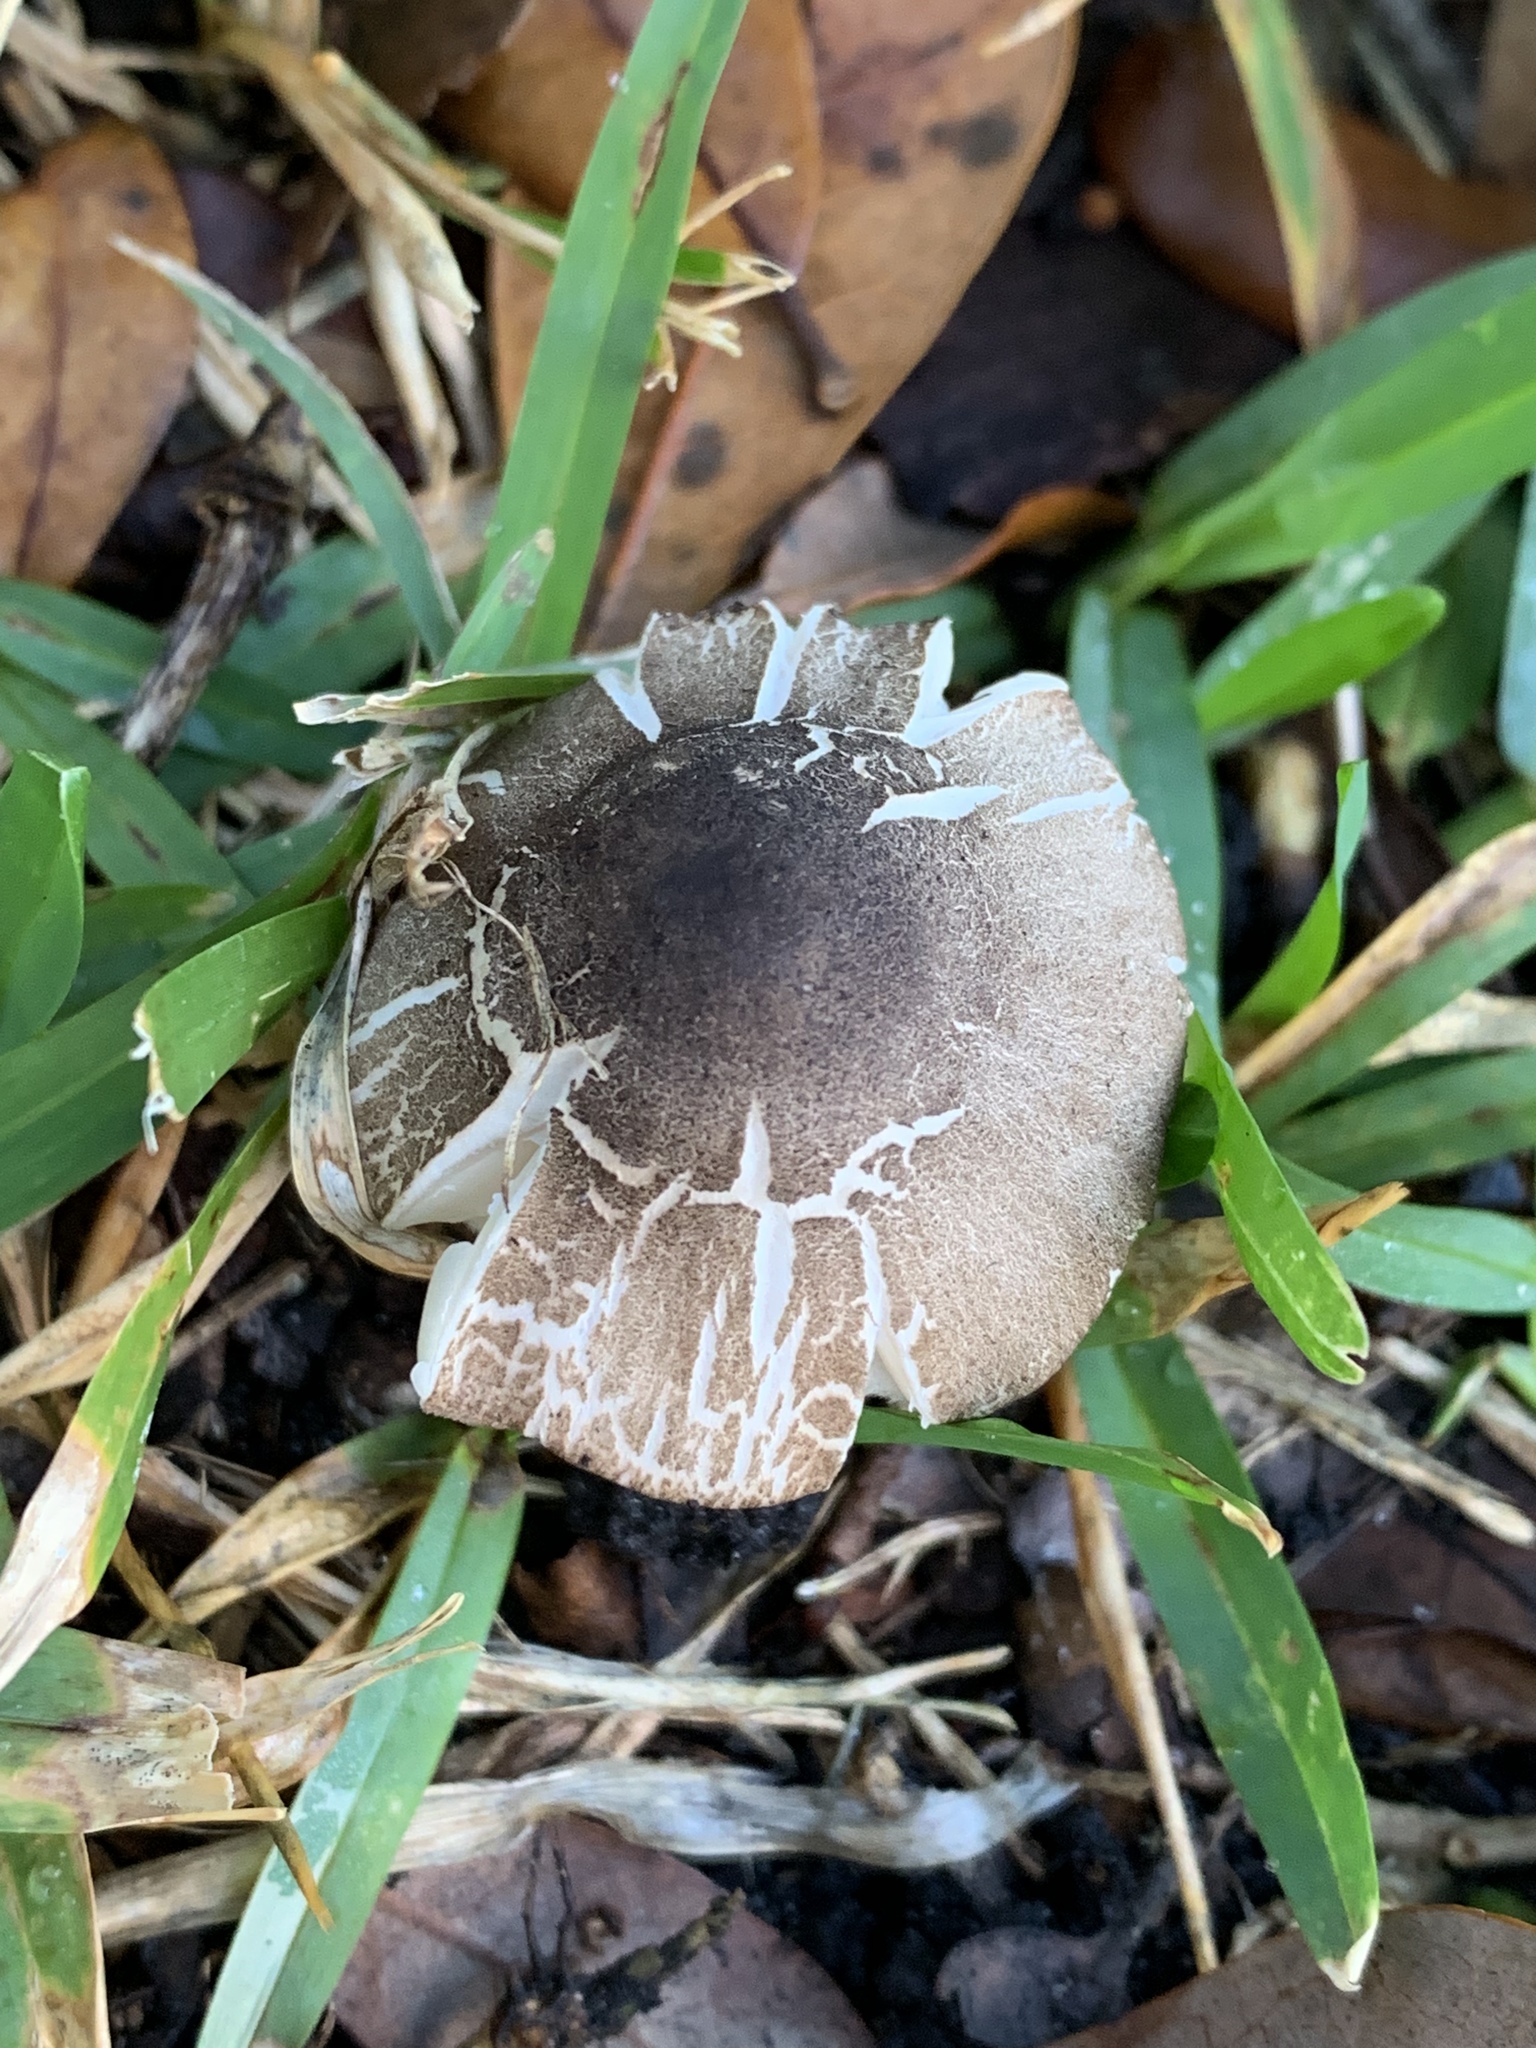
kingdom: Fungi
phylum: Basidiomycota
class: Agaricomycetes
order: Agaricales
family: Agaricaceae
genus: Agaricus
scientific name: Agaricus endoxanthus
